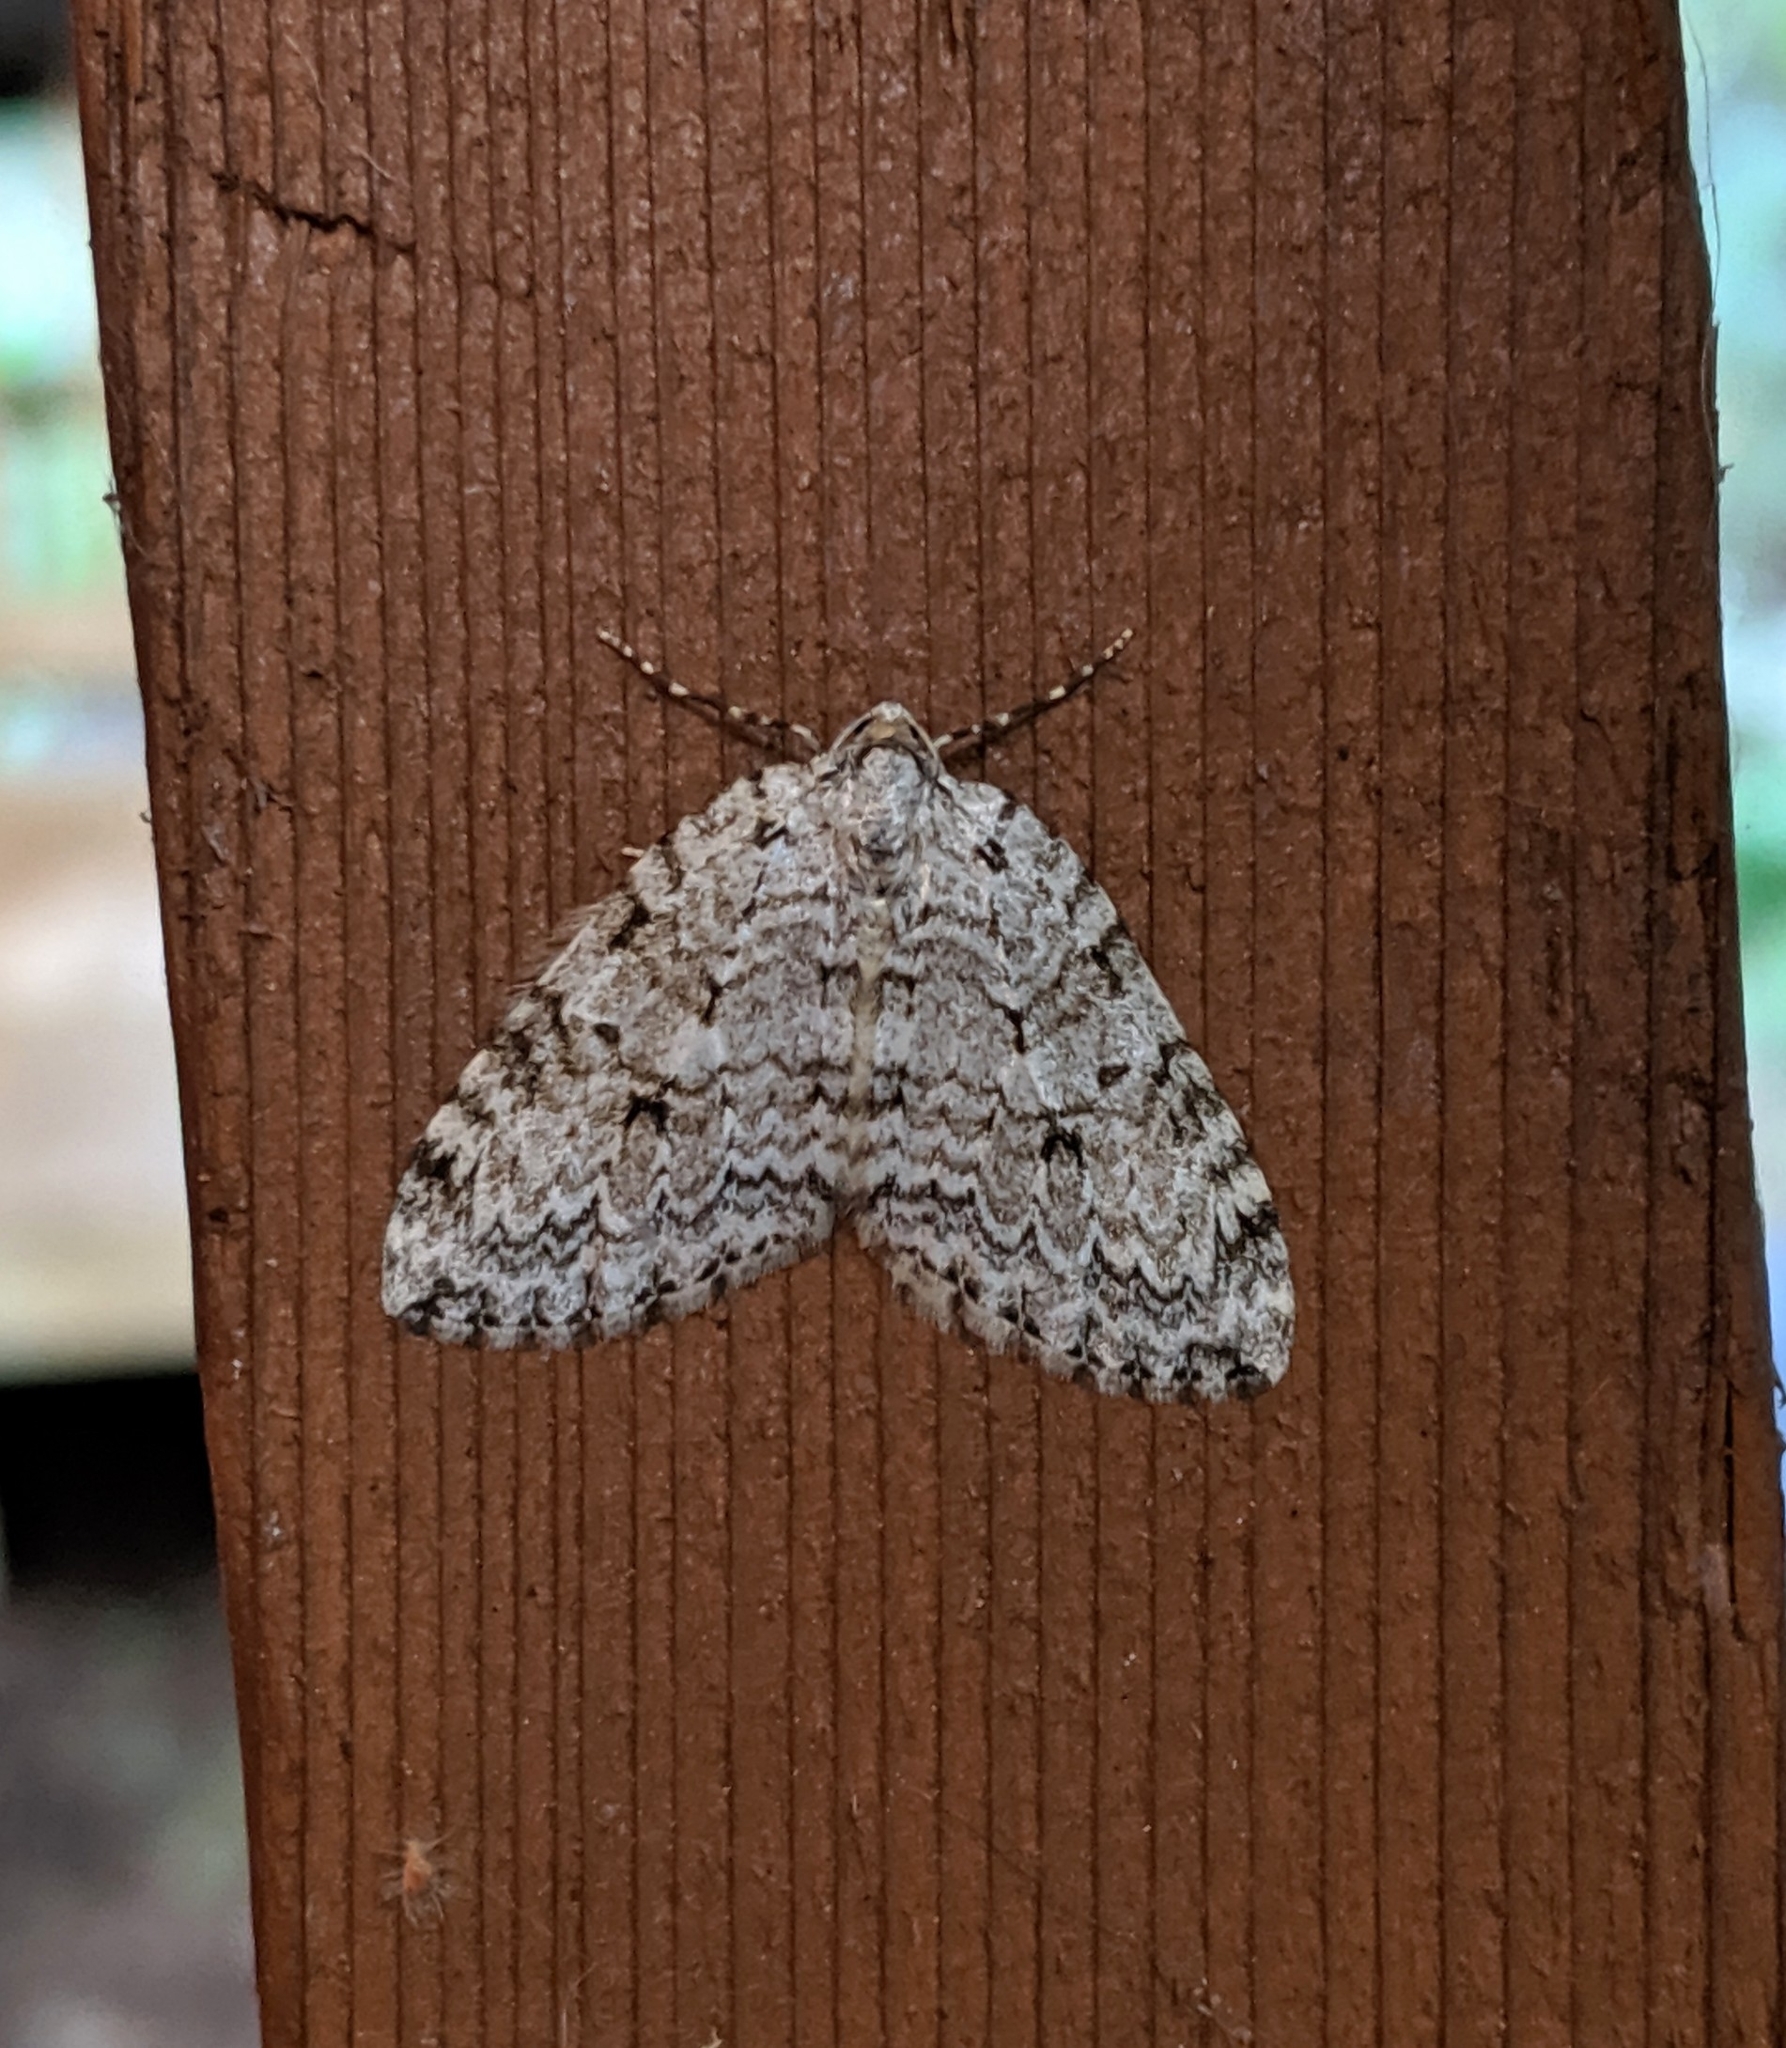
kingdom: Animalia
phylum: Arthropoda
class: Insecta
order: Lepidoptera
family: Geometridae
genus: Epirrita
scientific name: Epirrita autumnata
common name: Autumnal moth
